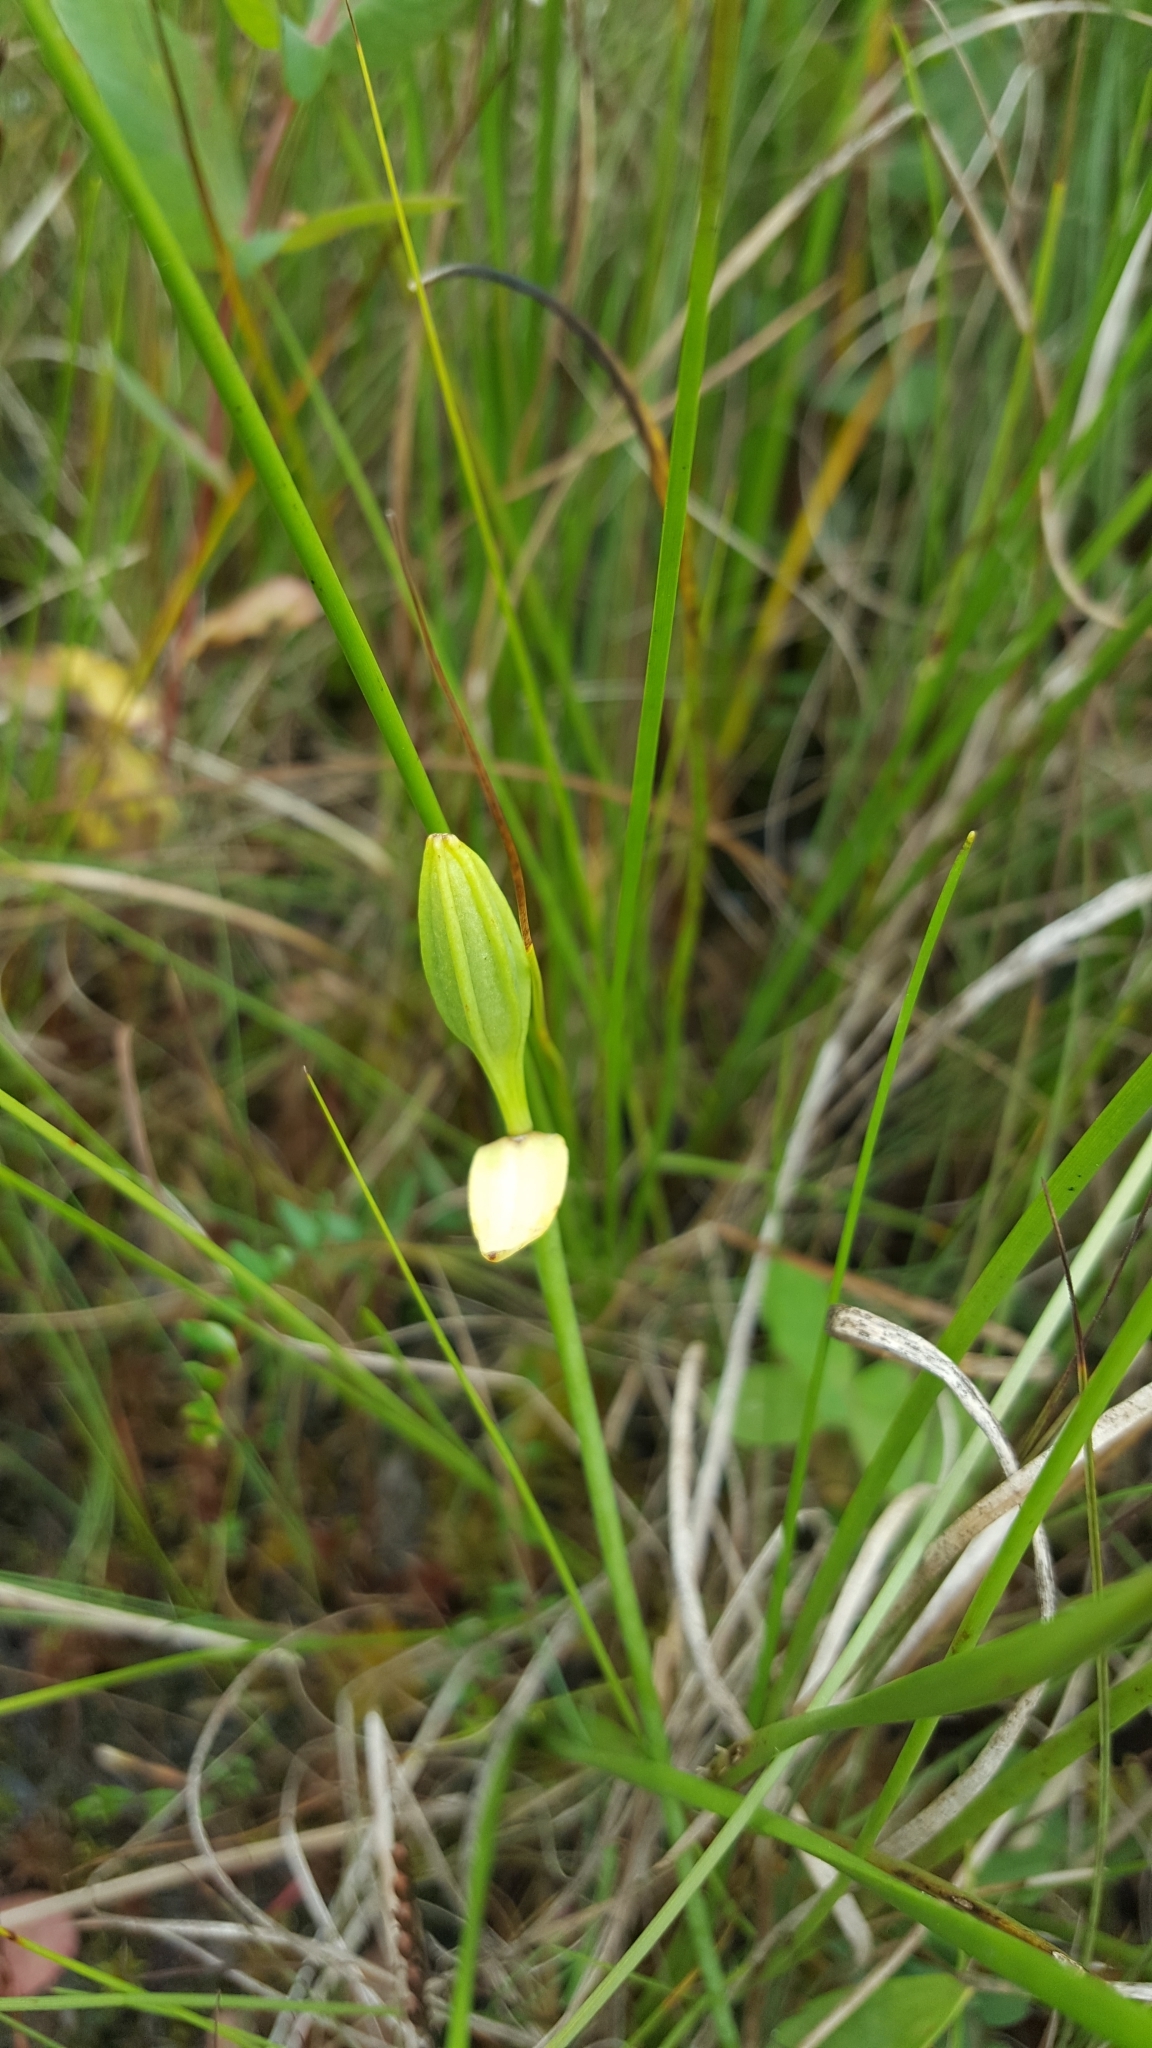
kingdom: Plantae
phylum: Tracheophyta
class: Liliopsida
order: Asparagales
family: Orchidaceae
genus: Pogonia
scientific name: Pogonia ophioglossoides
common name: Rose pogonia
